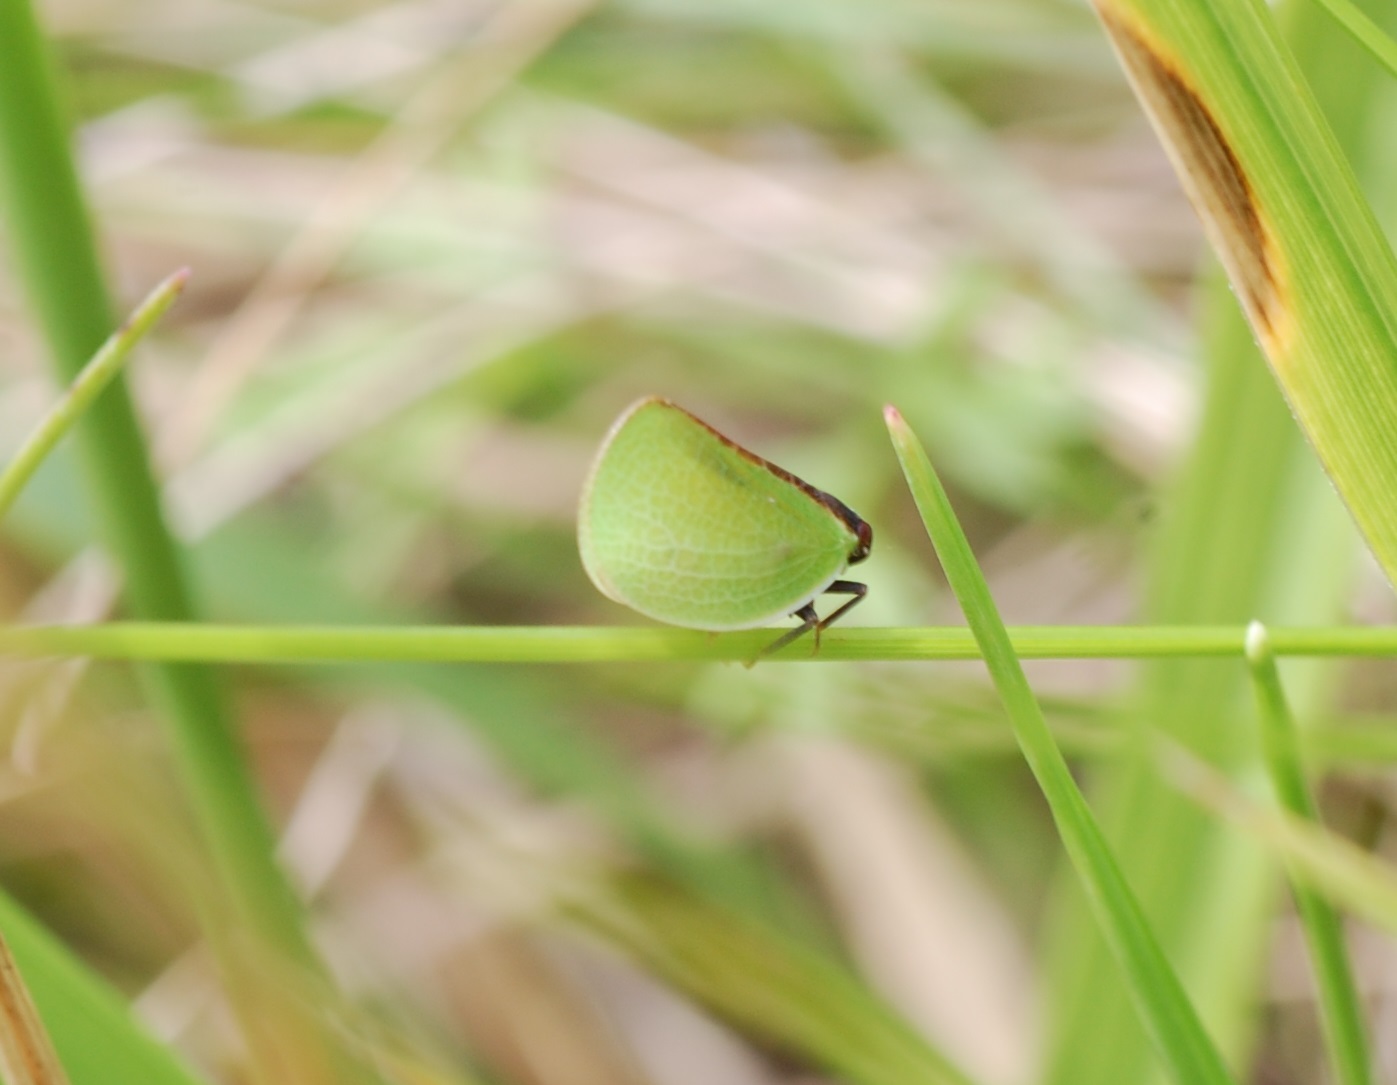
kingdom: Animalia
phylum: Arthropoda
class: Insecta
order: Hemiptera
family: Acanaloniidae
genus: Acanalonia
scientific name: Acanalonia bivittata
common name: Two-striped planthopper
